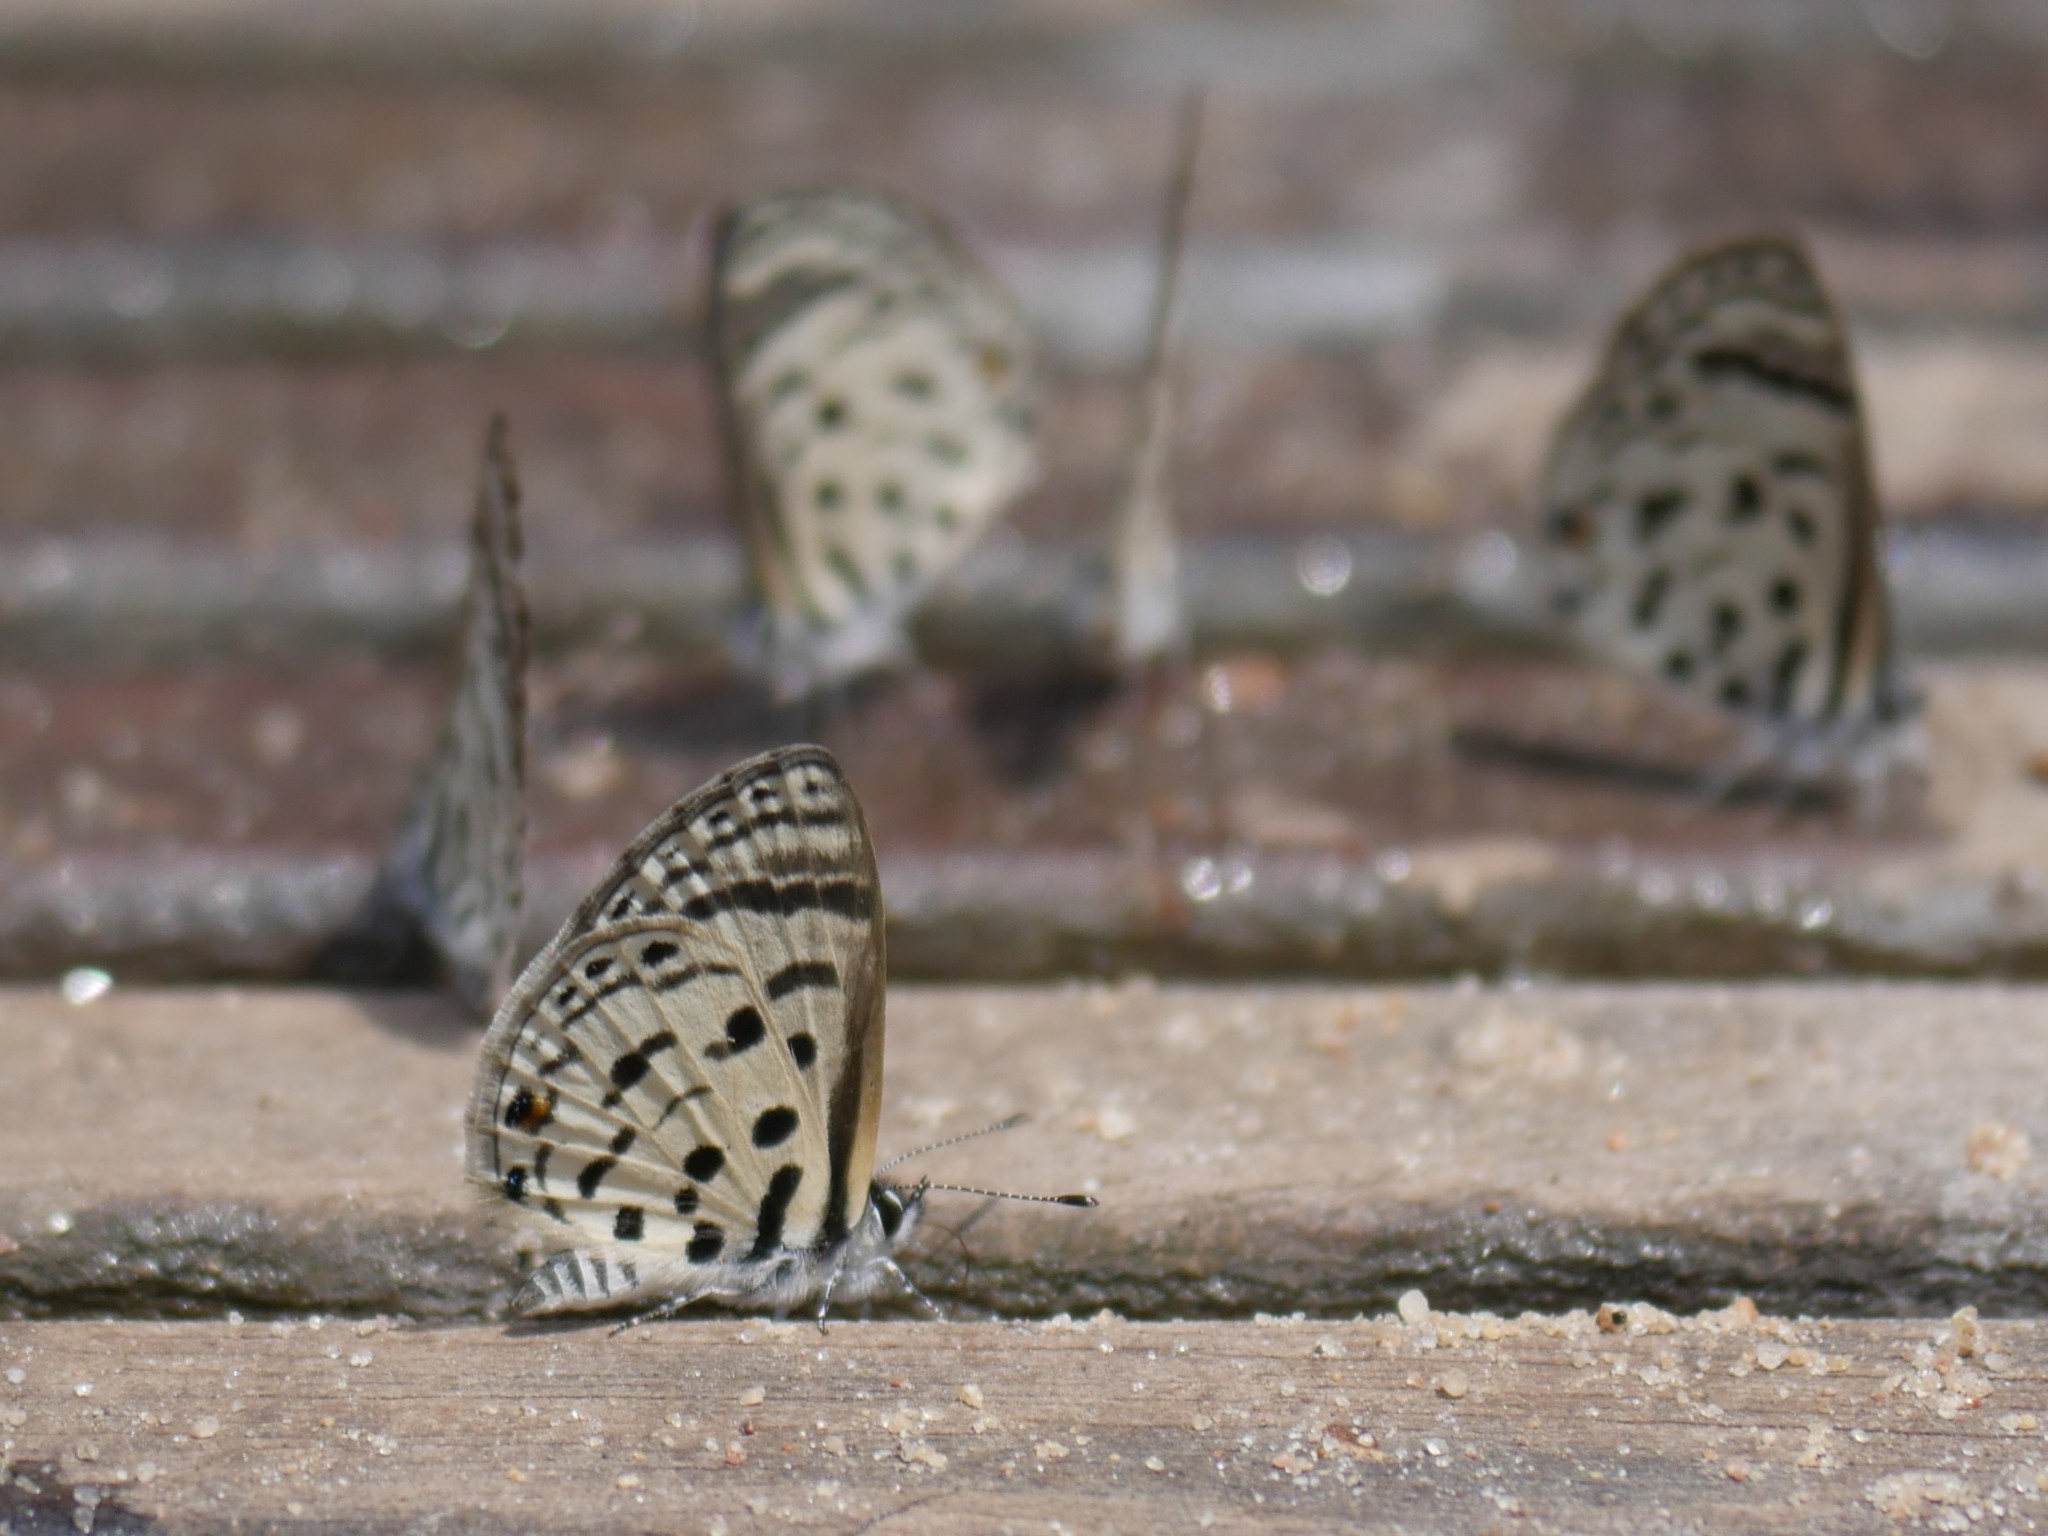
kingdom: Animalia
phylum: Arthropoda
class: Insecta
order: Lepidoptera
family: Lycaenidae
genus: Azanus
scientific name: Azanus mirza
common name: Mirza babul blue
